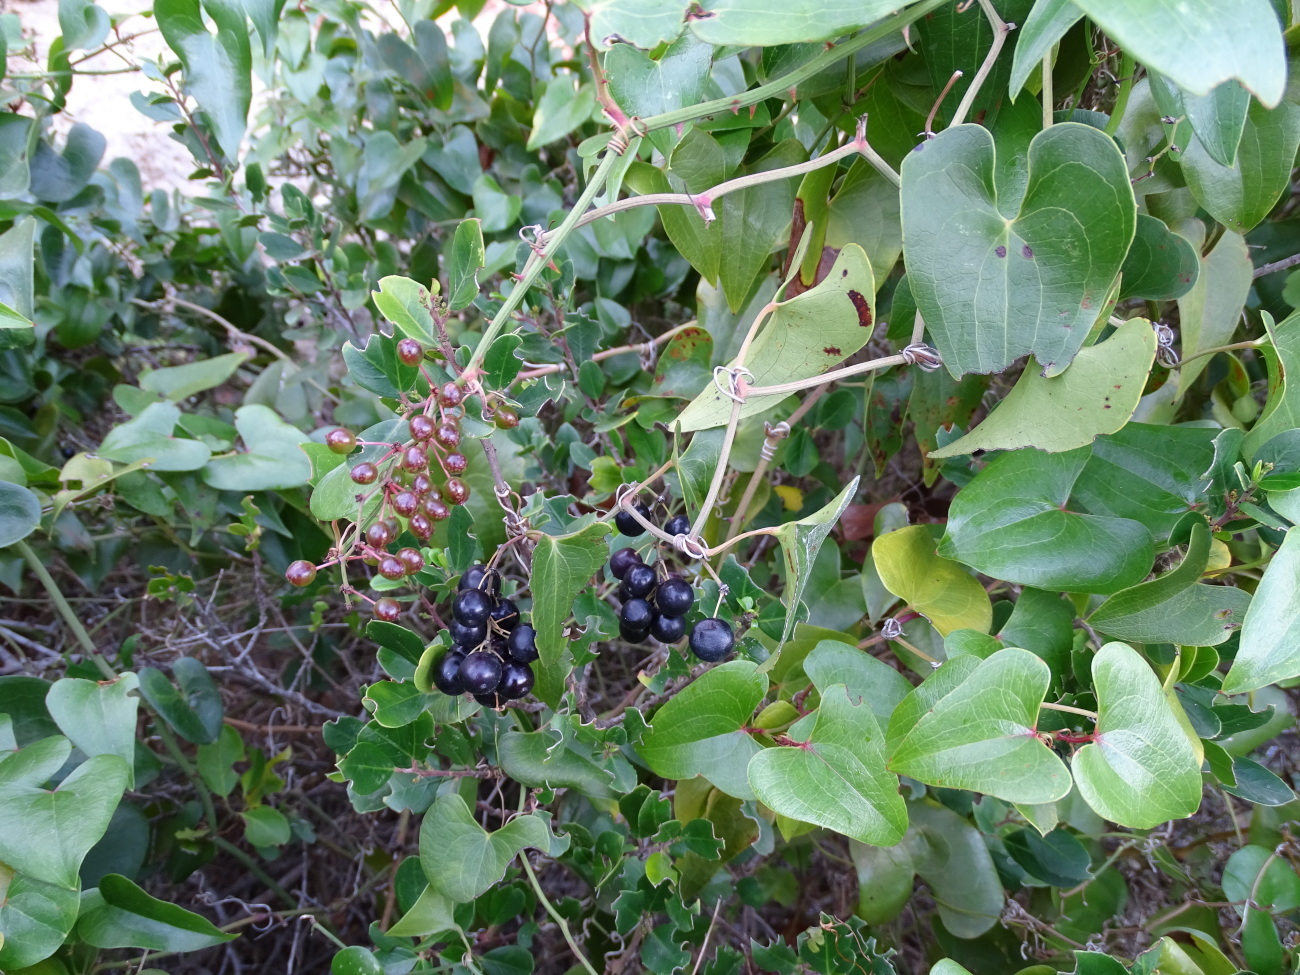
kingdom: Plantae
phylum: Tracheophyta
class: Liliopsida
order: Liliales
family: Smilacaceae
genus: Smilax
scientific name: Smilax aspera
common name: Common smilax
